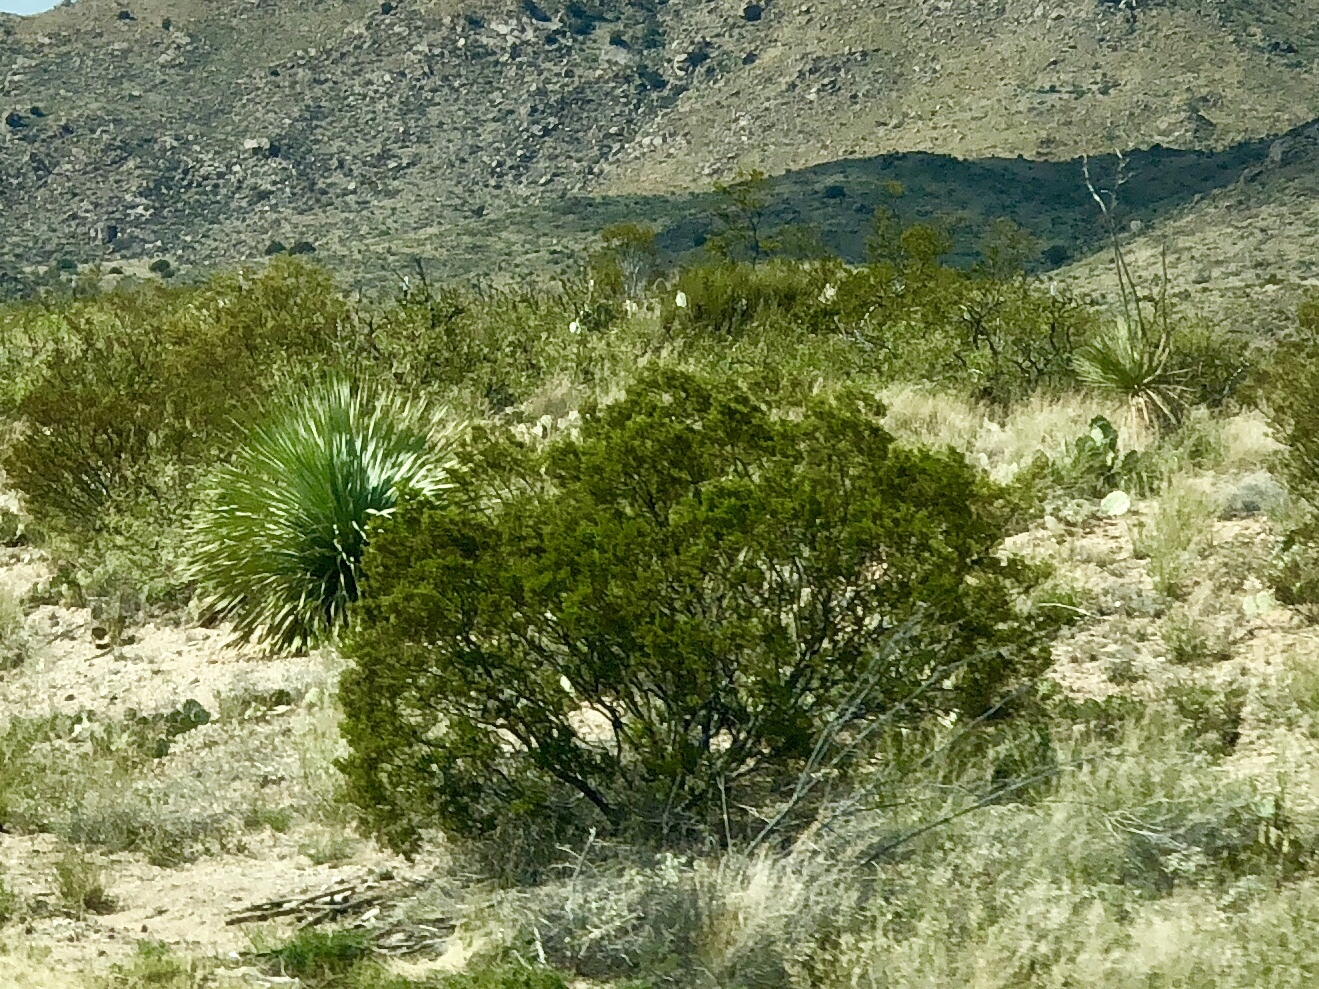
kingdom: Plantae
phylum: Tracheophyta
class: Magnoliopsida
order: Zygophyllales
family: Zygophyllaceae
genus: Larrea
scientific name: Larrea tridentata
